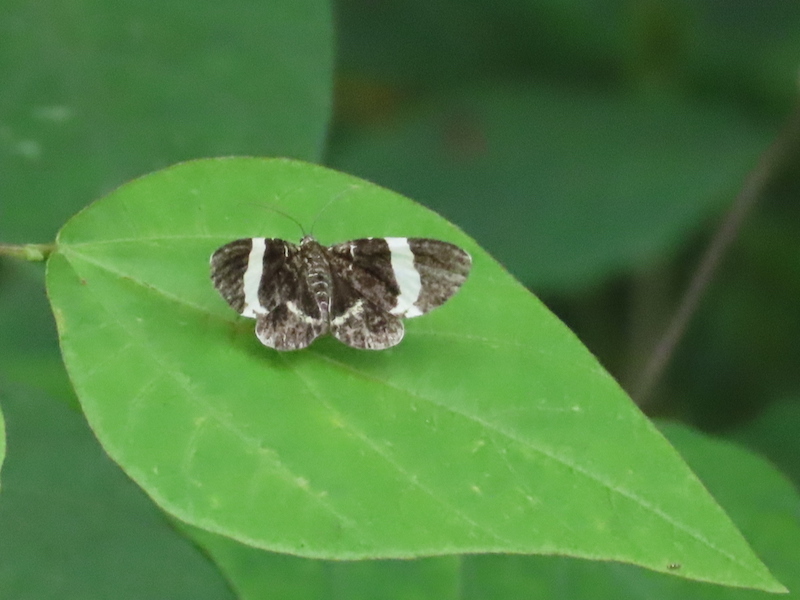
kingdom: Animalia
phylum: Arthropoda
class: Insecta
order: Lepidoptera
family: Geometridae
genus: Trichodezia
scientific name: Trichodezia albovittata
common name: White striped black
